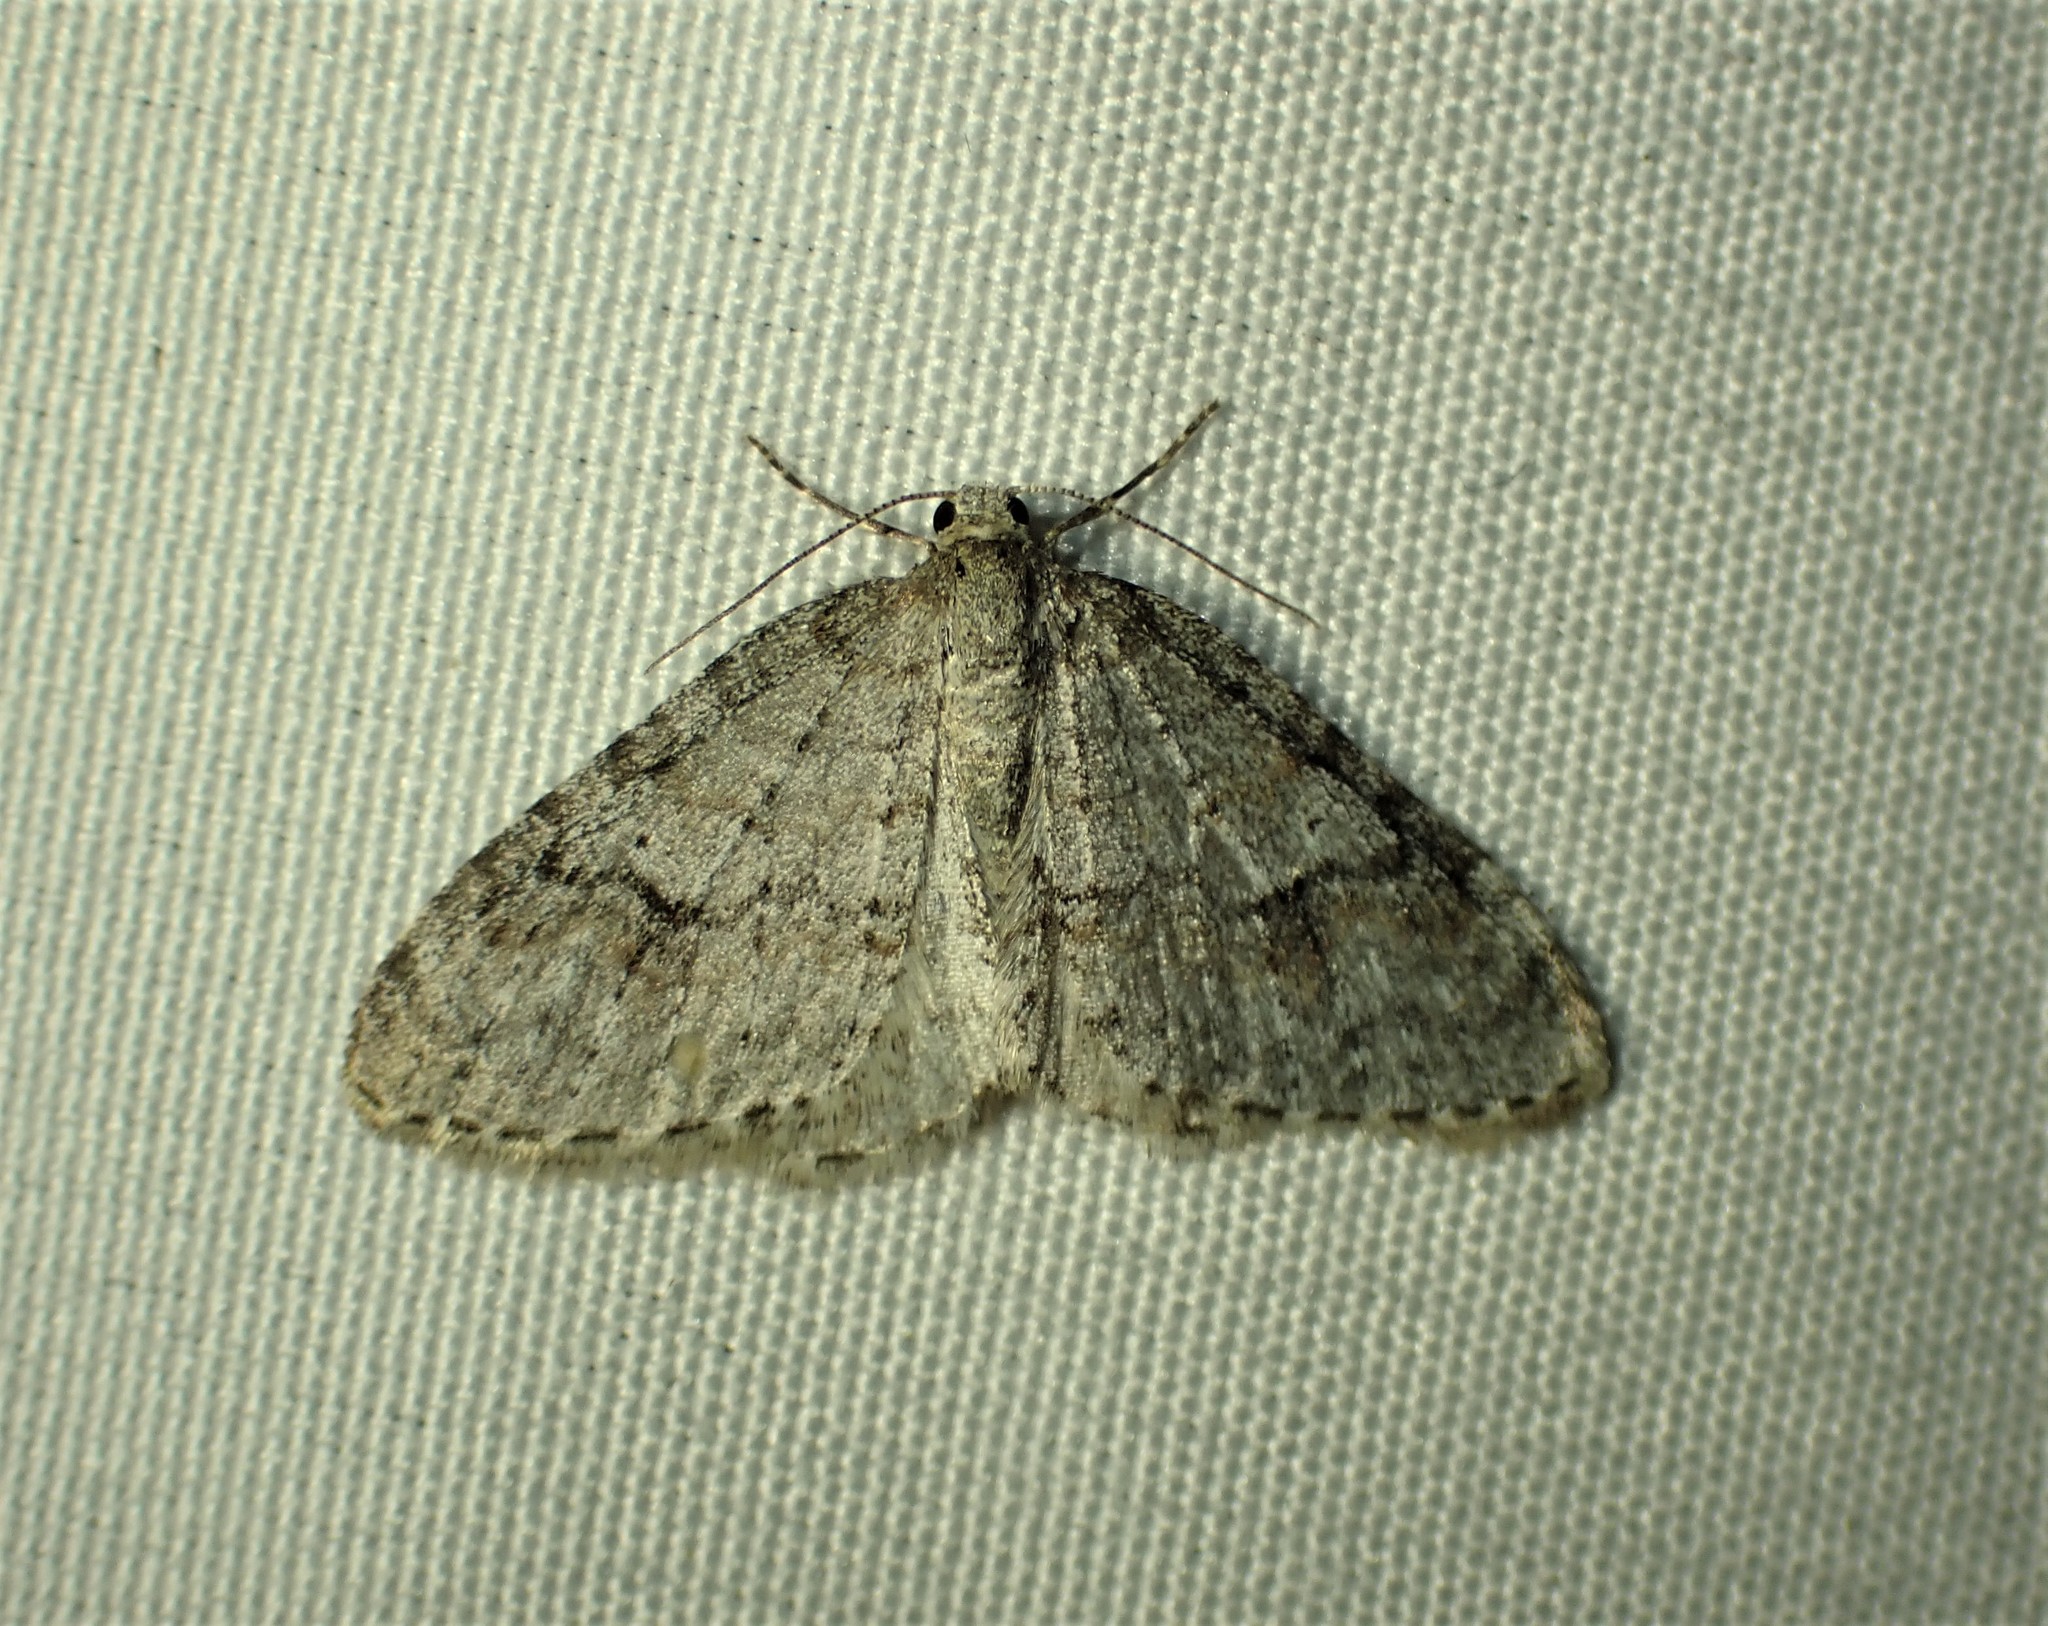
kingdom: Animalia
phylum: Arthropoda
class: Insecta
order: Lepidoptera
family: Geometridae
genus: Venusia
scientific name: Venusia comptaria
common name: Brown-shaded carpet
